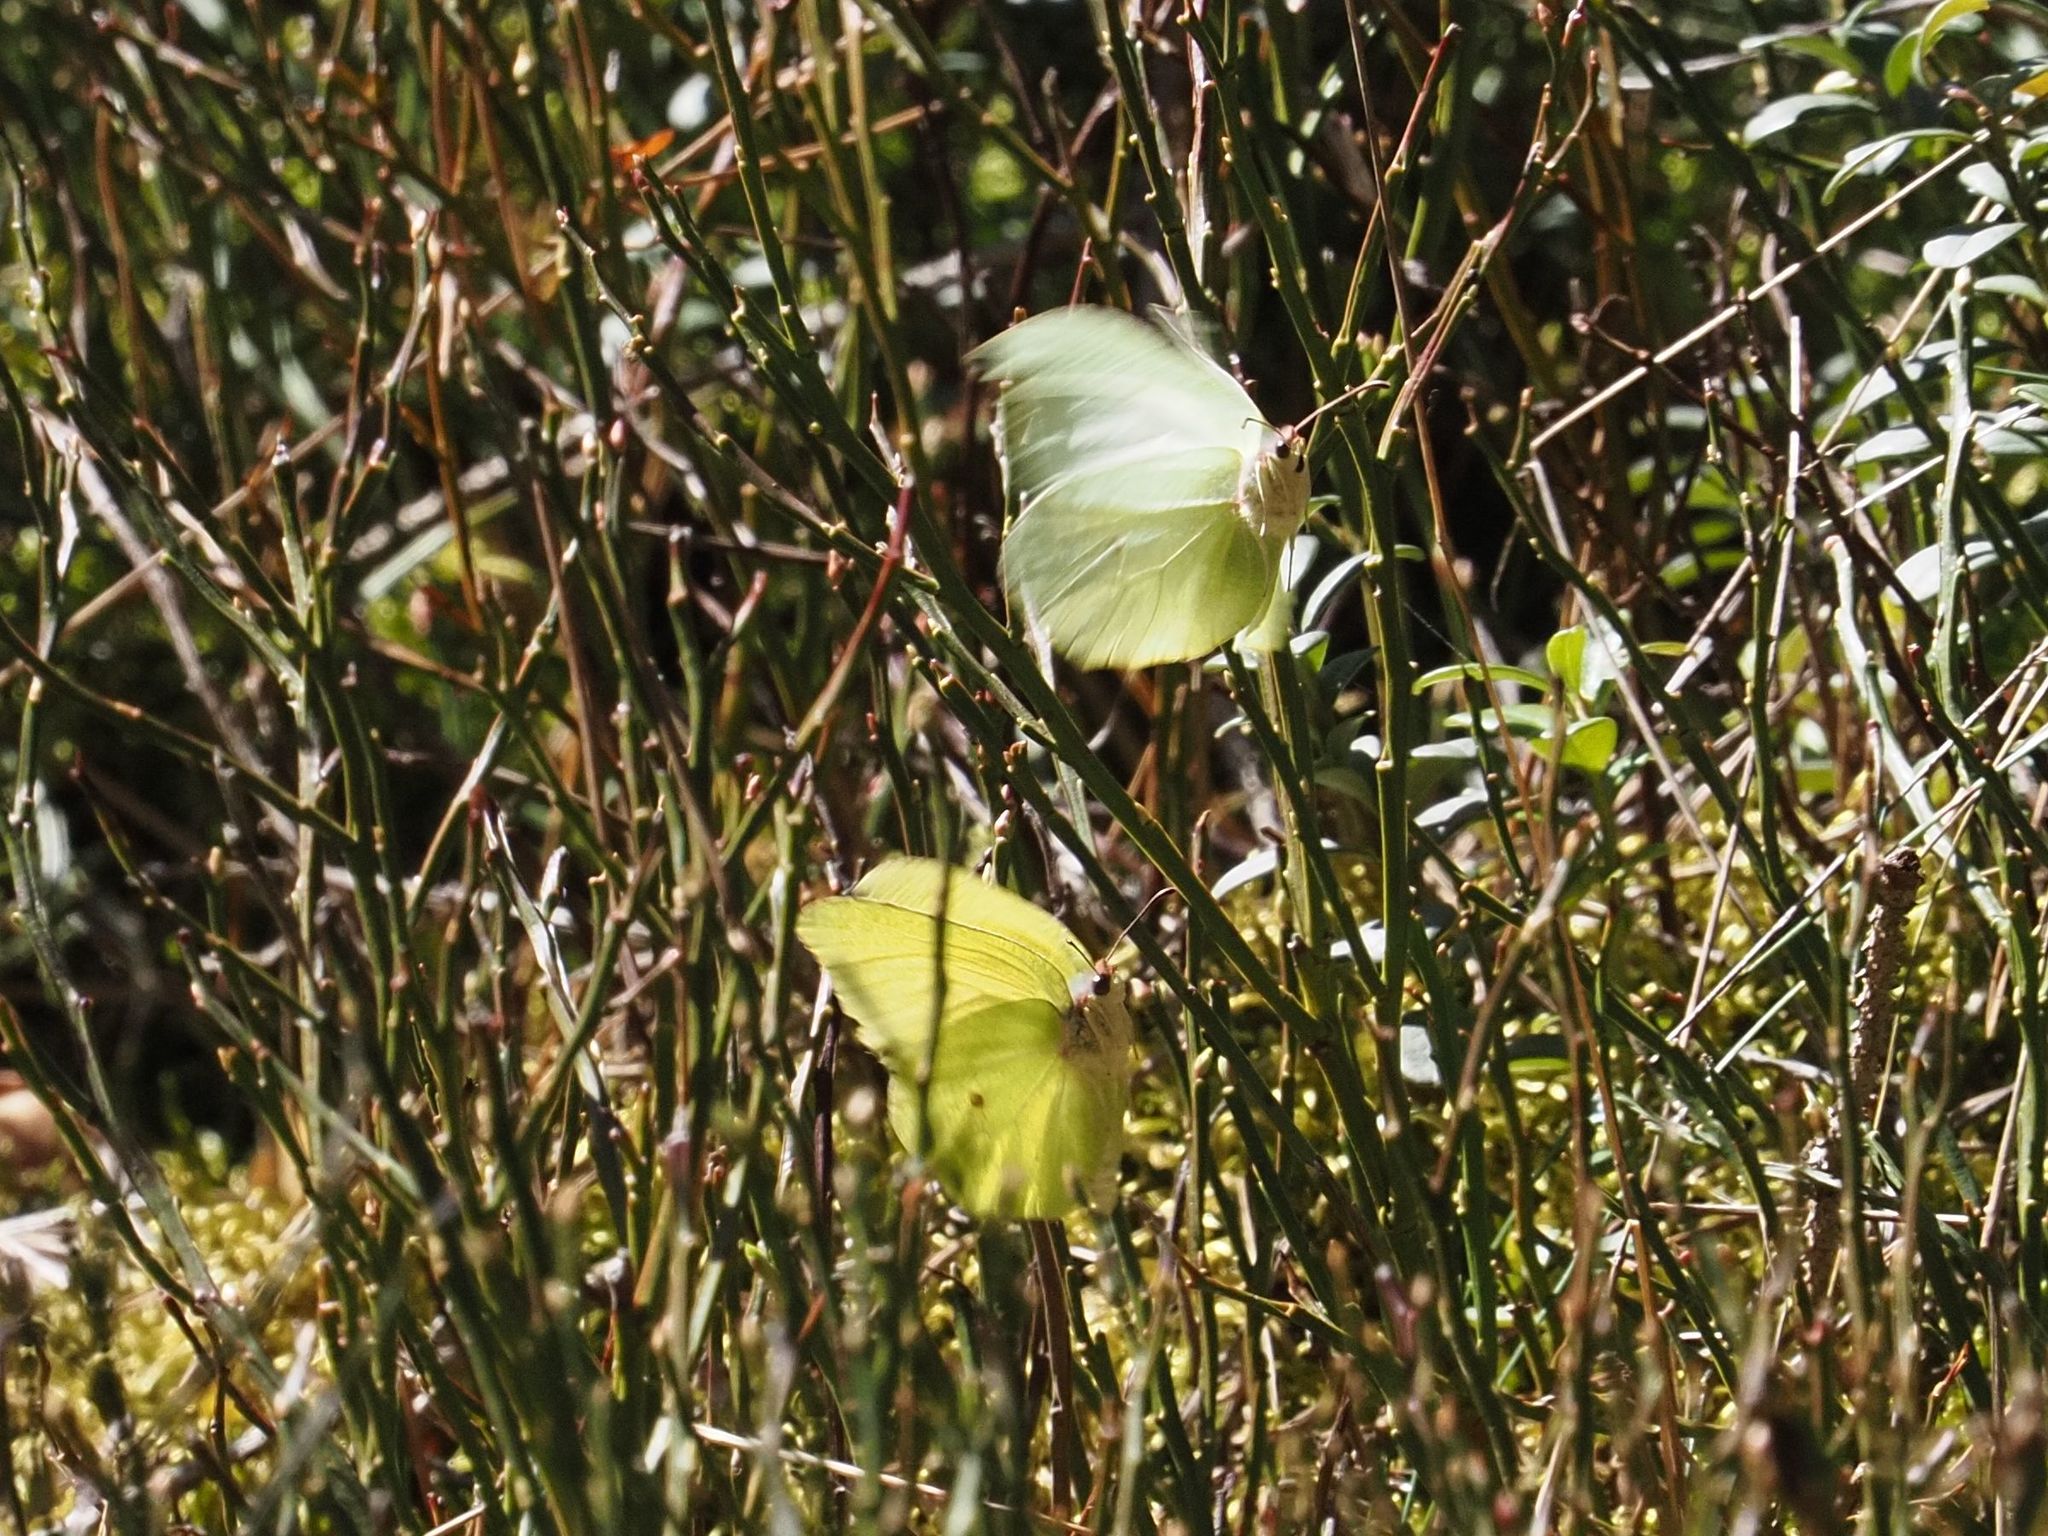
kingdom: Animalia
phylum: Arthropoda
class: Insecta
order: Lepidoptera
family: Pieridae
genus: Gonepteryx
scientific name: Gonepteryx rhamni
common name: Brimstone
